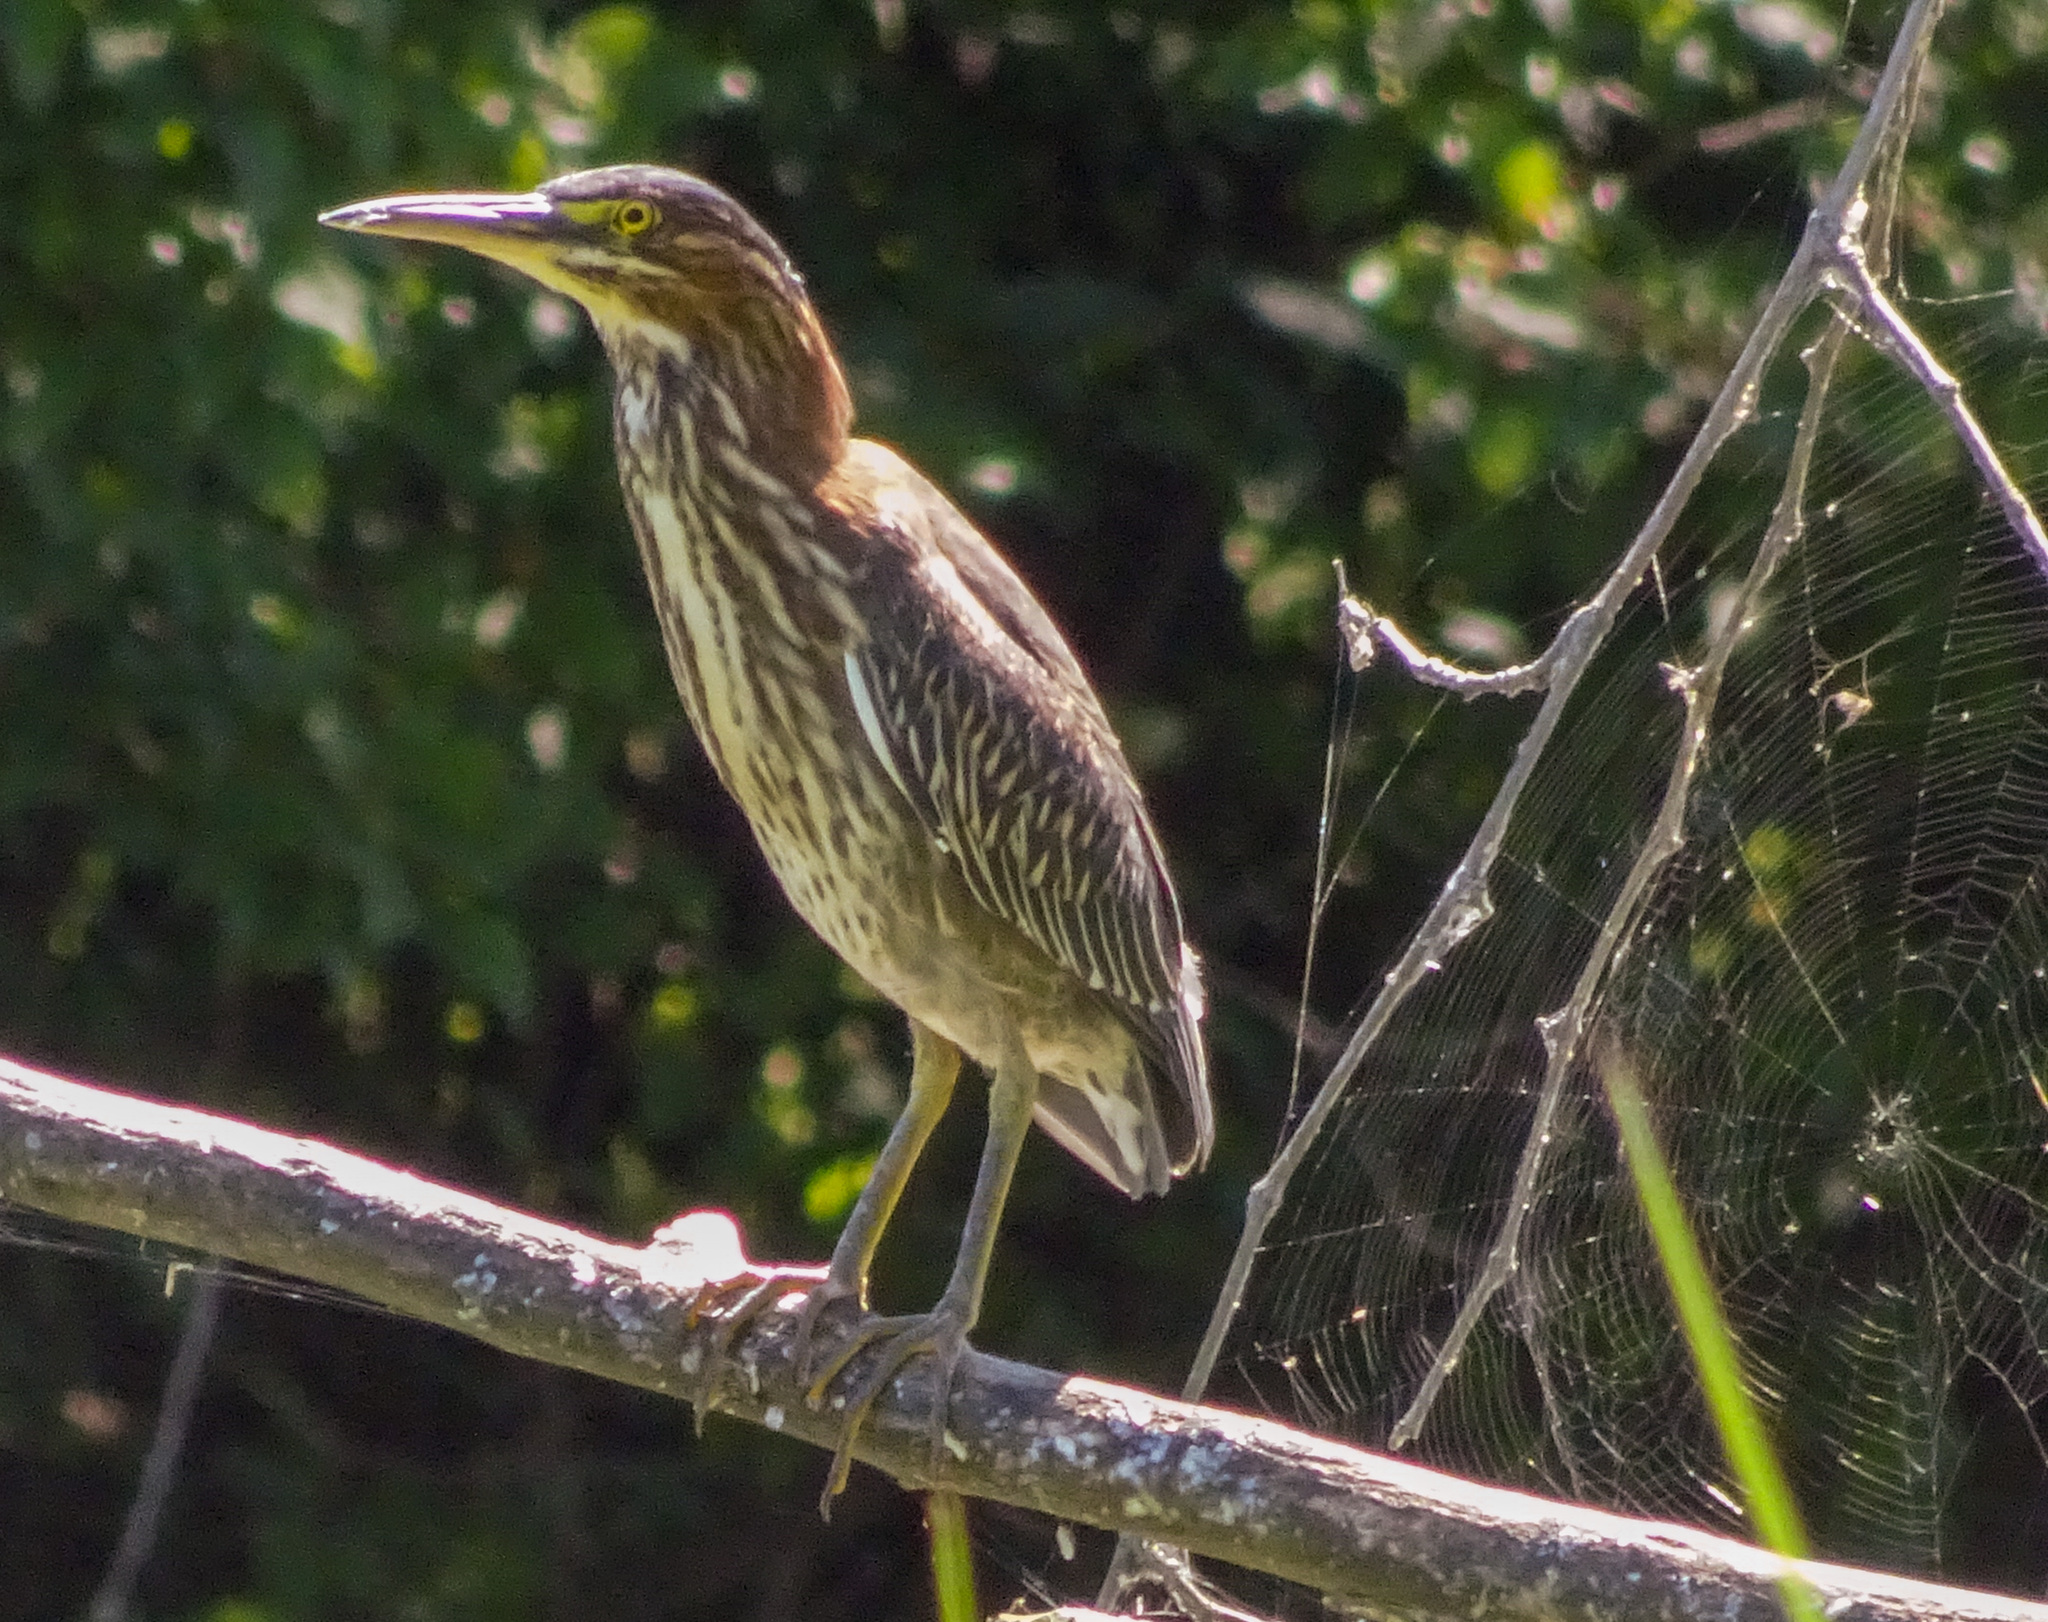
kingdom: Animalia
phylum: Chordata
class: Aves
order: Pelecaniformes
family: Ardeidae
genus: Butorides
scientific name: Butorides virescens
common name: Green heron
